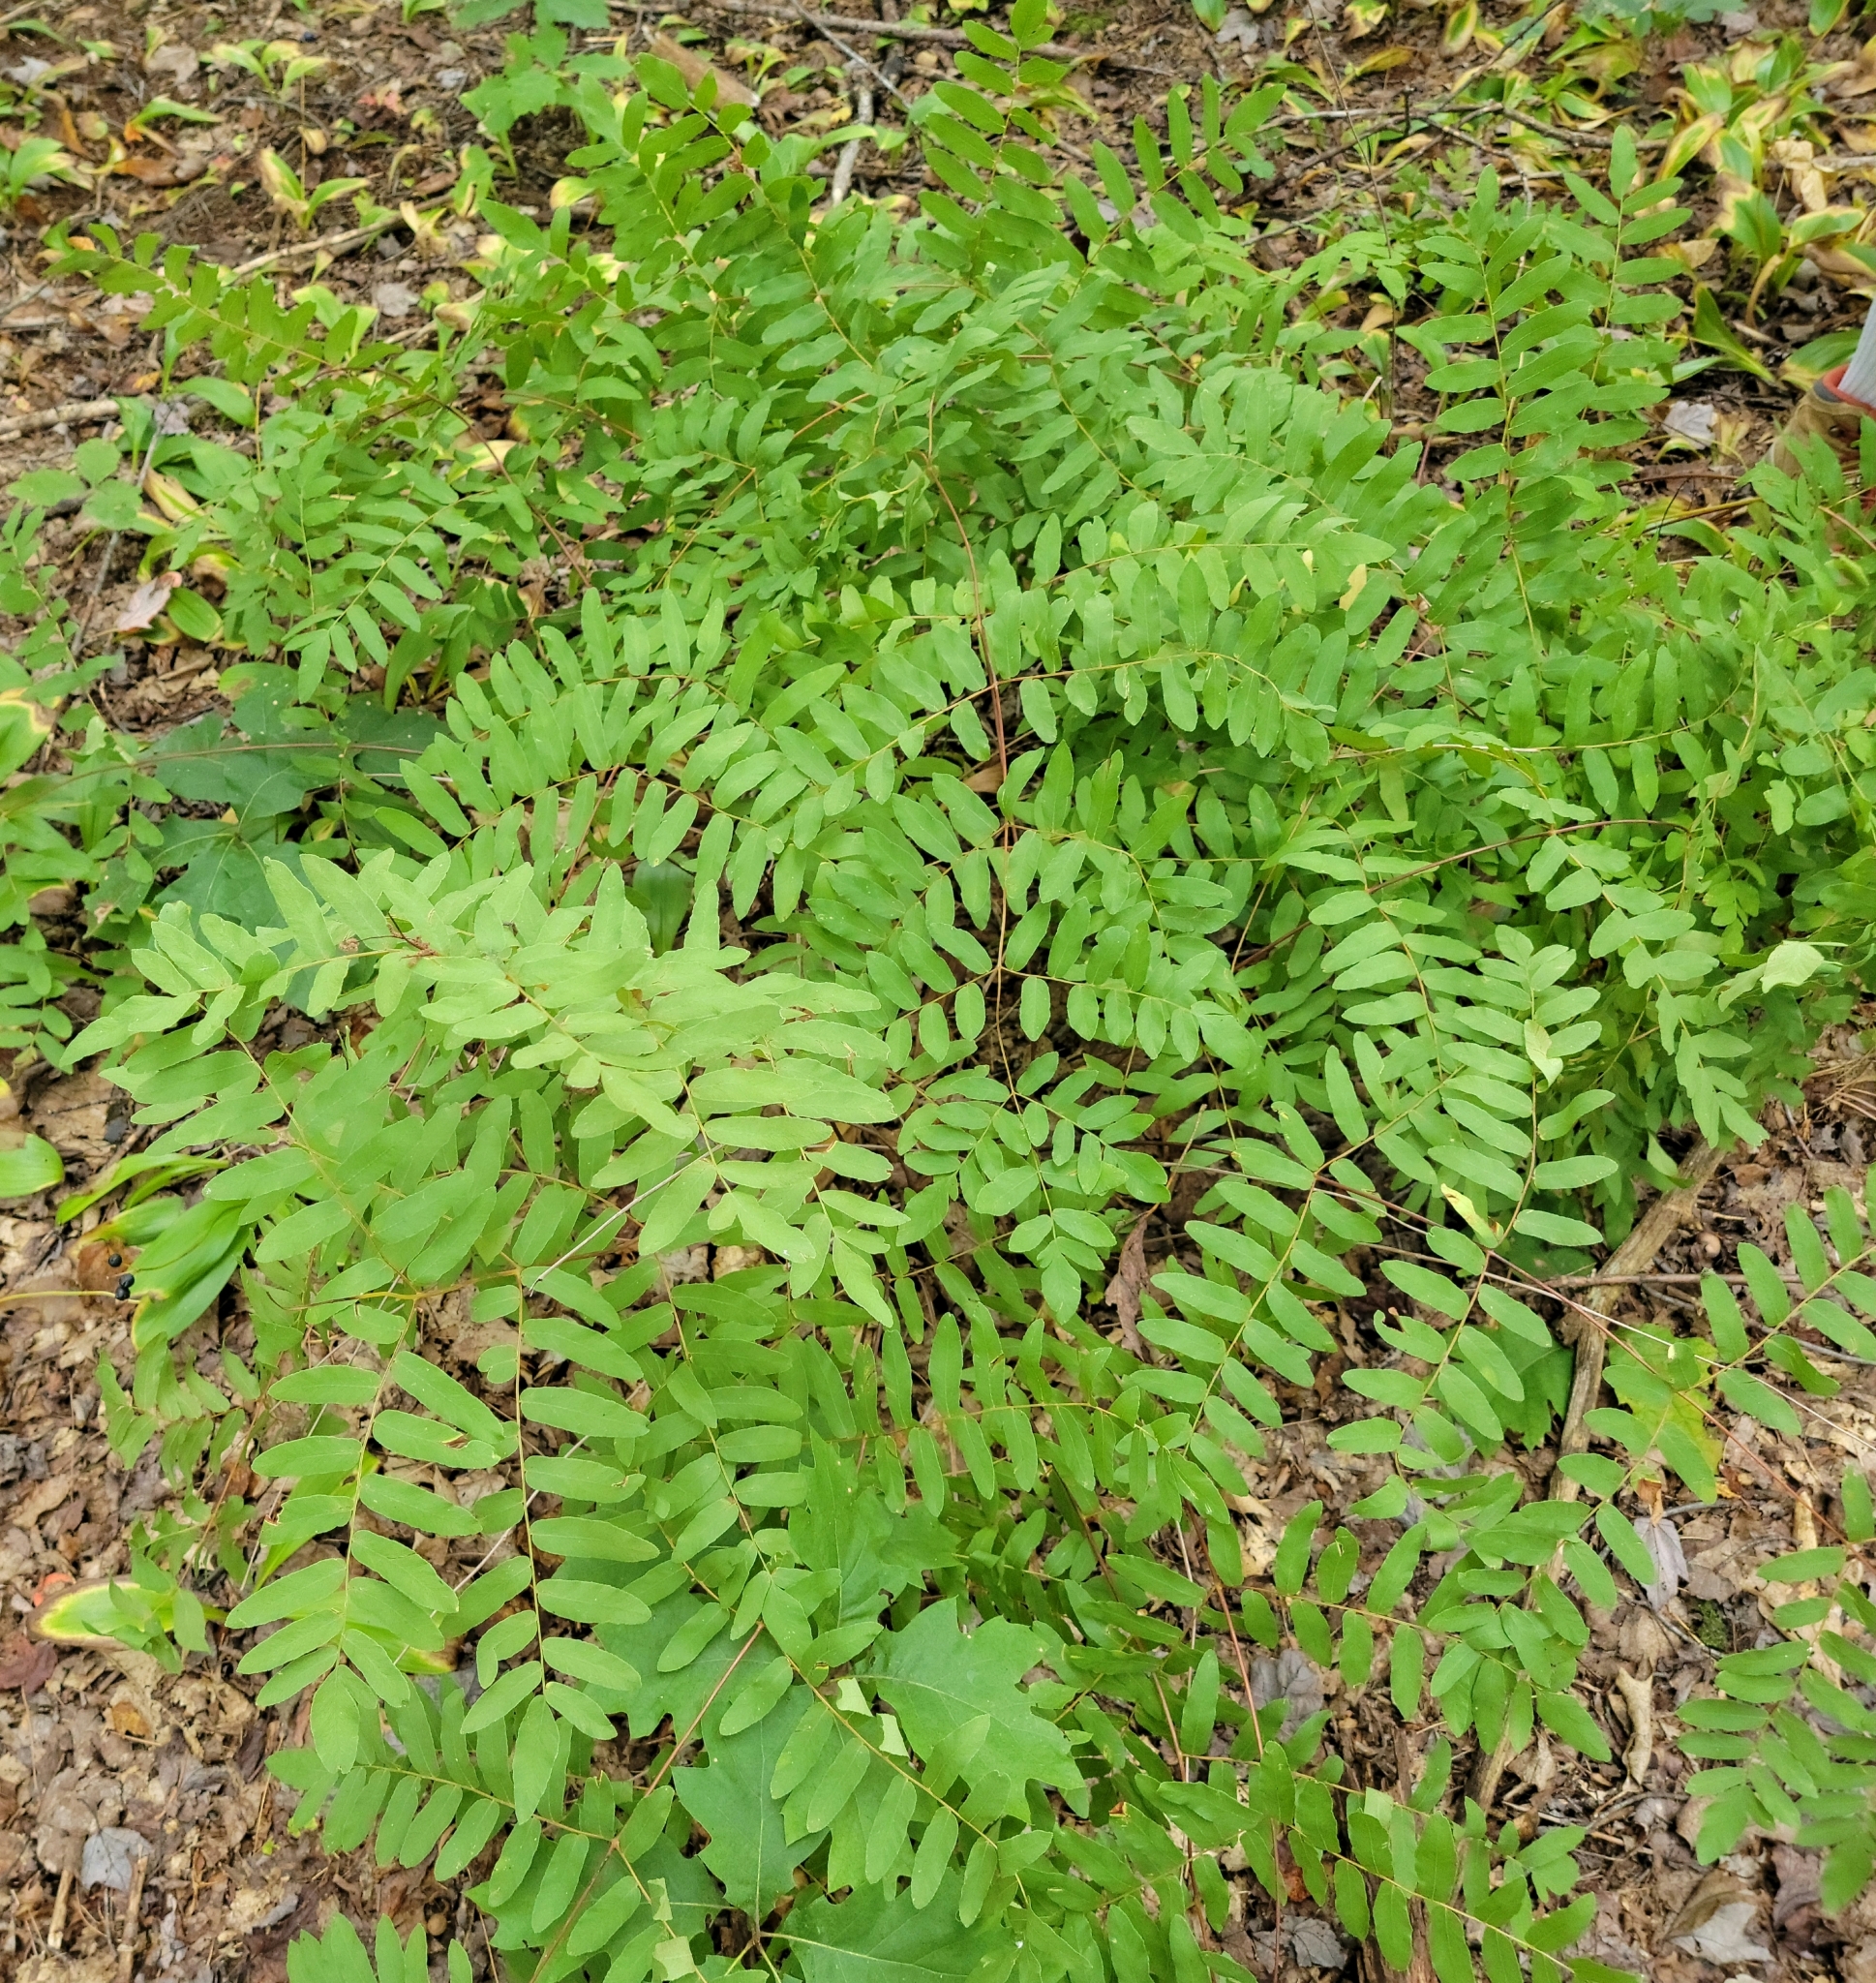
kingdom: Plantae
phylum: Tracheophyta
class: Polypodiopsida
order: Osmundales
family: Osmundaceae
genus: Osmunda
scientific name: Osmunda spectabilis
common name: American royal fern
